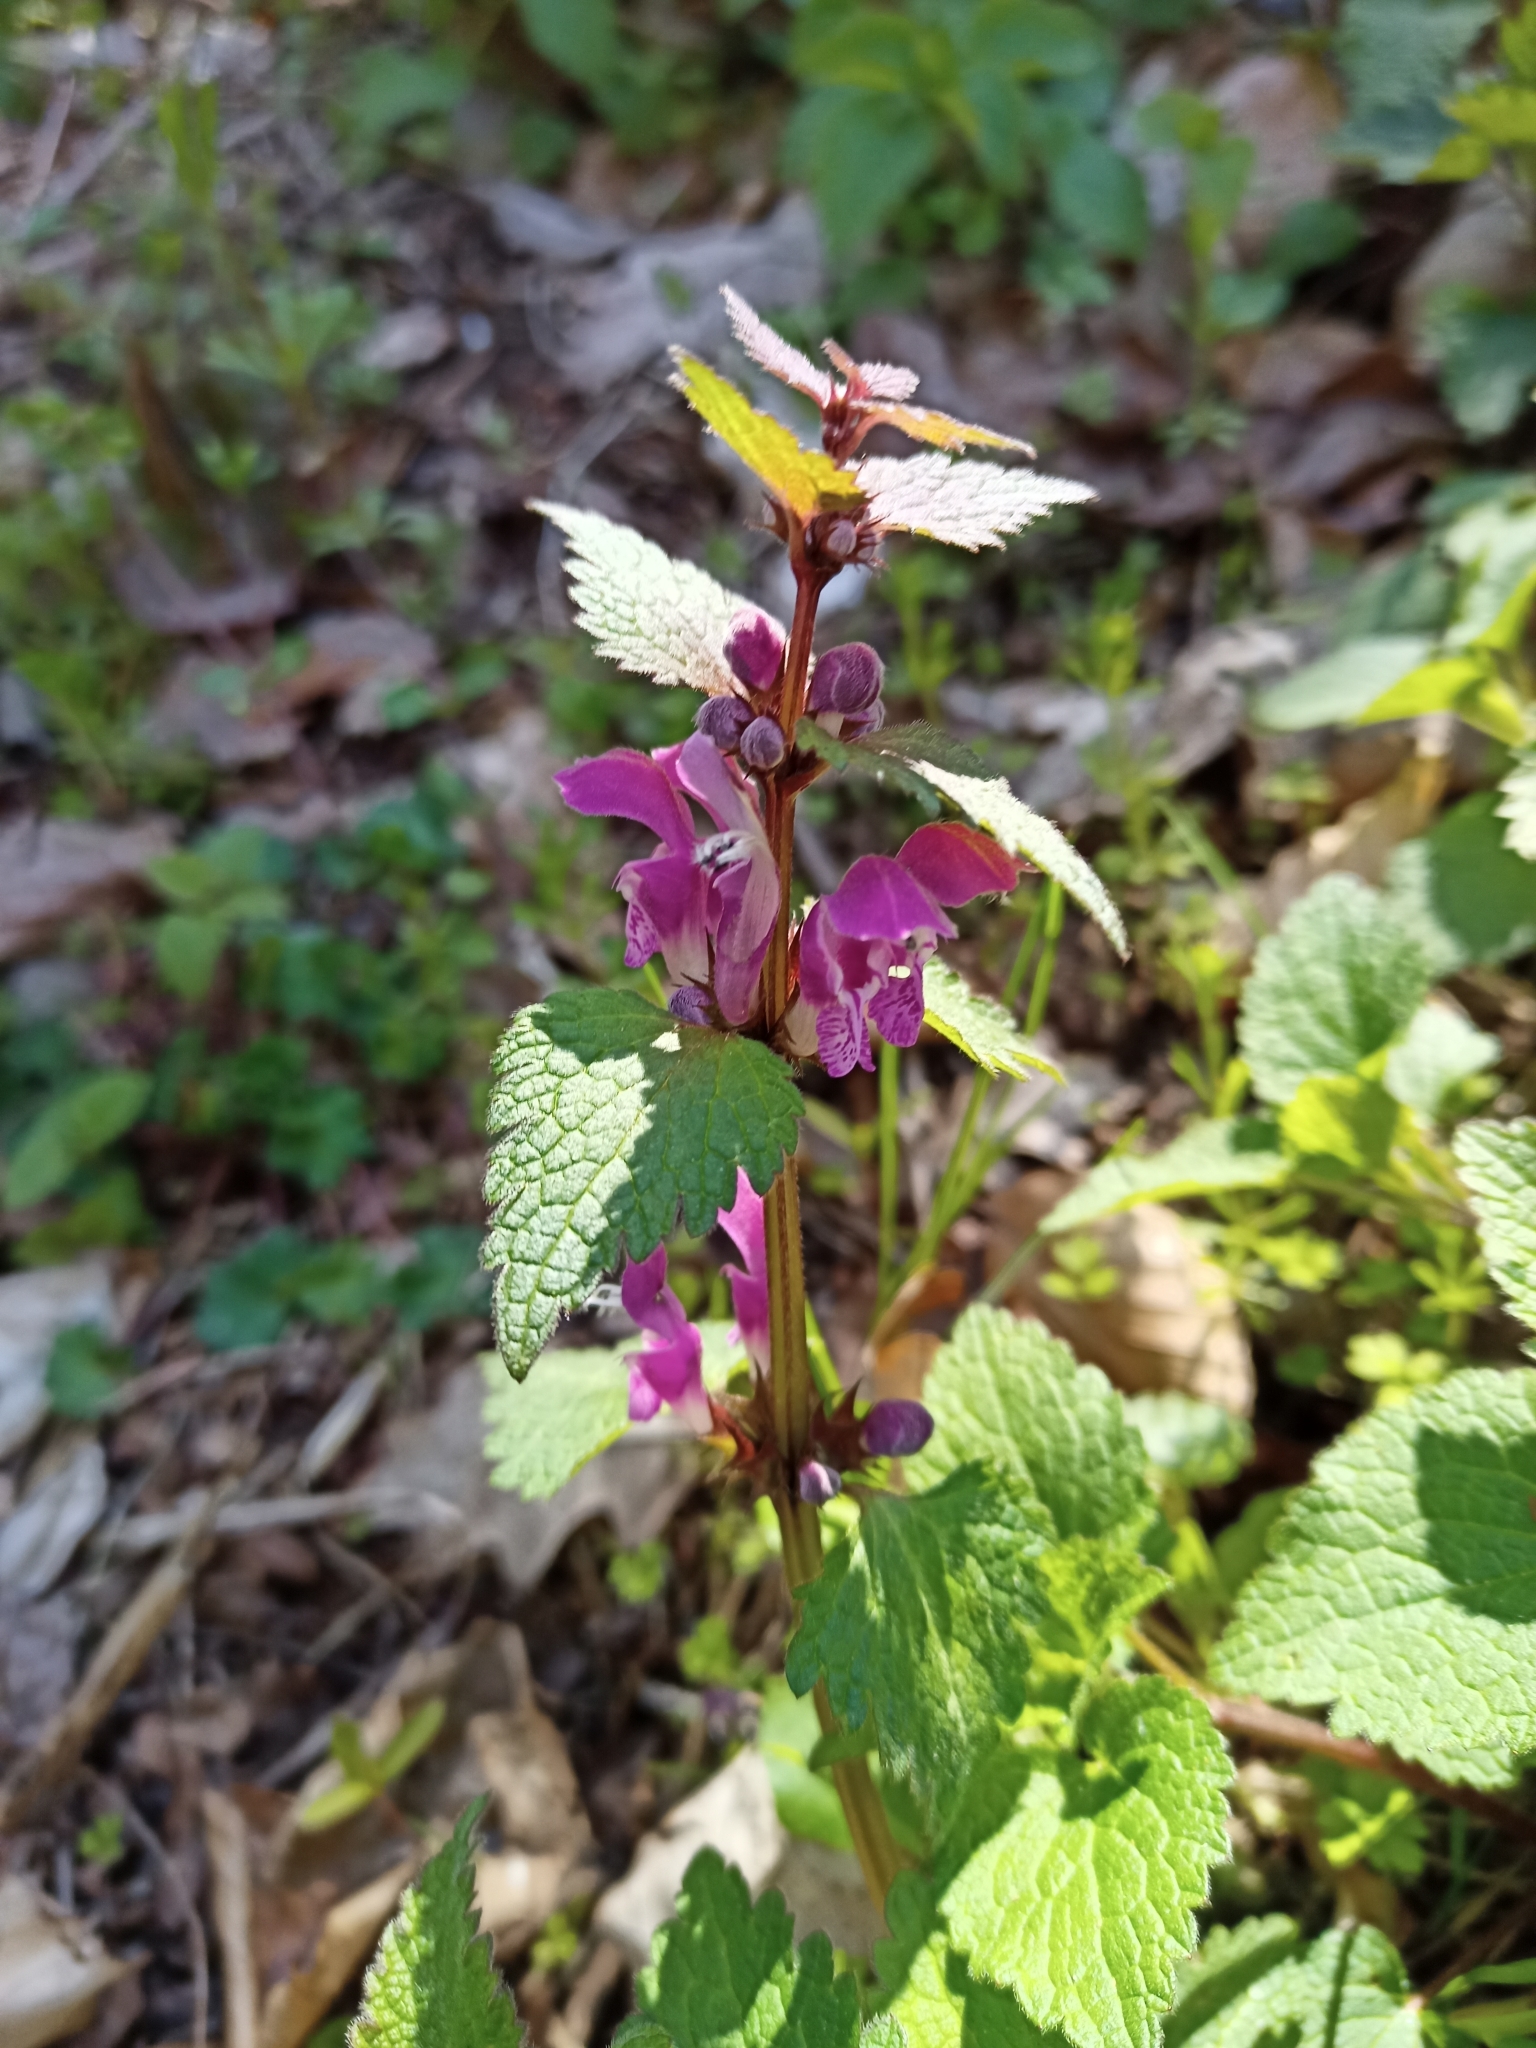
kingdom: Plantae
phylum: Tracheophyta
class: Magnoliopsida
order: Lamiales
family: Lamiaceae
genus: Lamium
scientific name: Lamium maculatum
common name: Spotted dead-nettle
